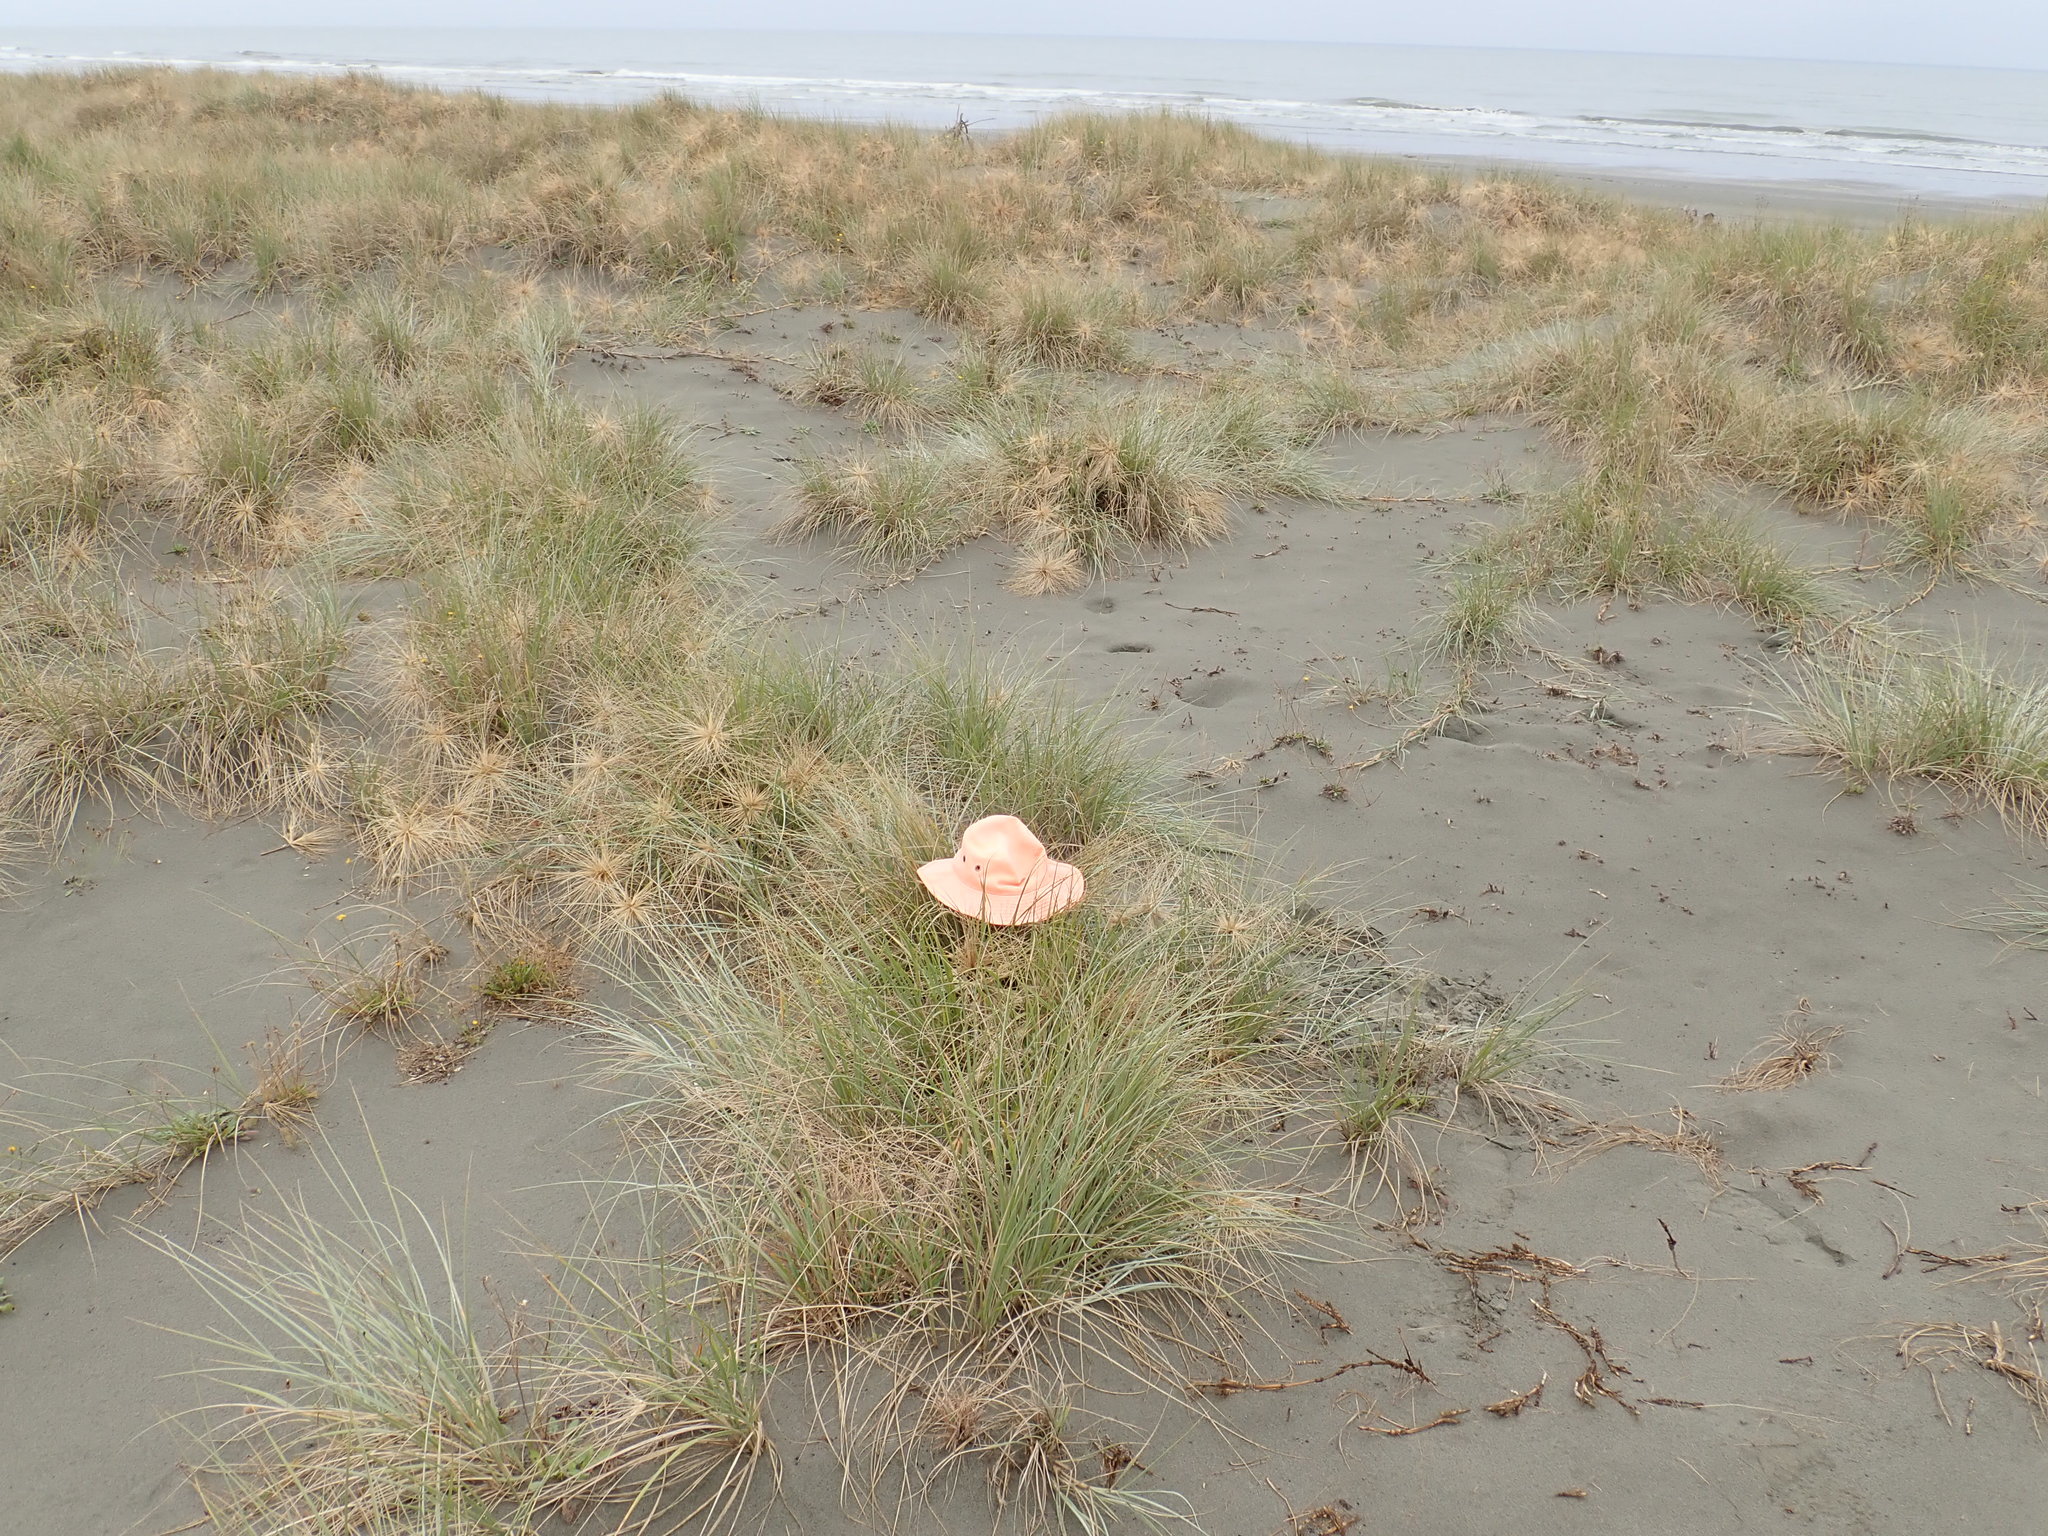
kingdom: Plantae
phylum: Tracheophyta
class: Liliopsida
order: Poales
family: Poaceae
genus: Spinifex
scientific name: Spinifex sericeus
